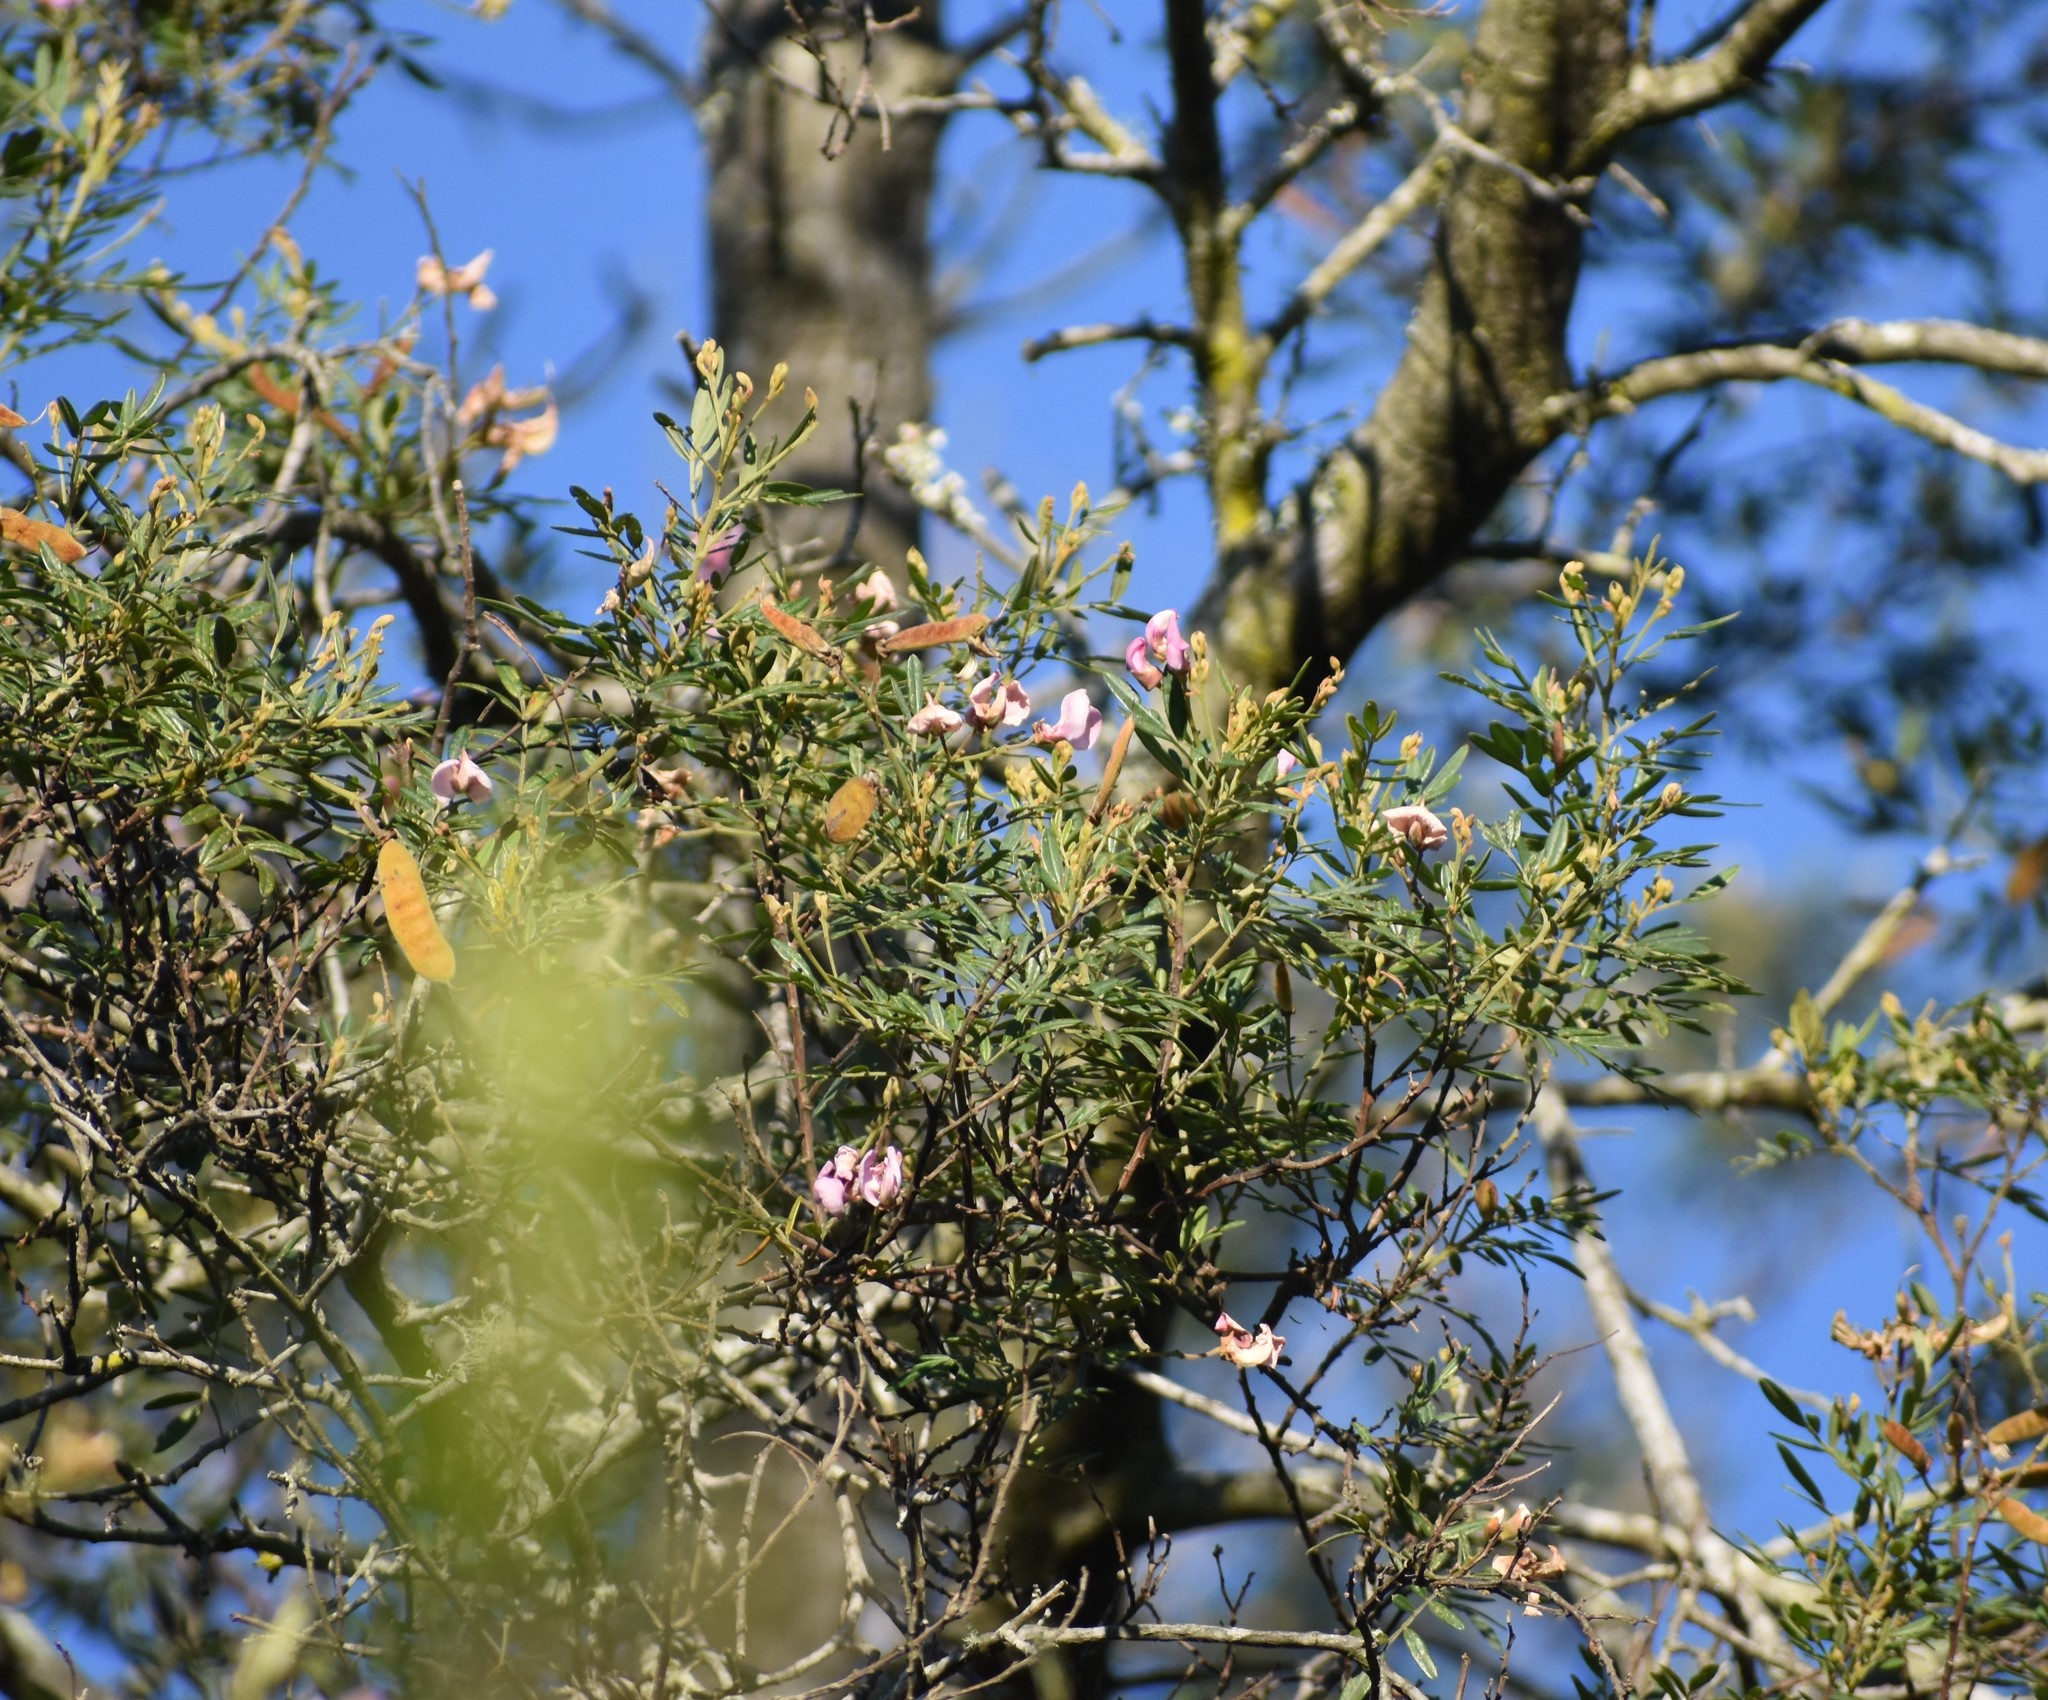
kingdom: Plantae
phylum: Tracheophyta
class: Magnoliopsida
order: Fabales
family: Fabaceae
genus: Virgilia
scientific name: Virgilia oroboides
